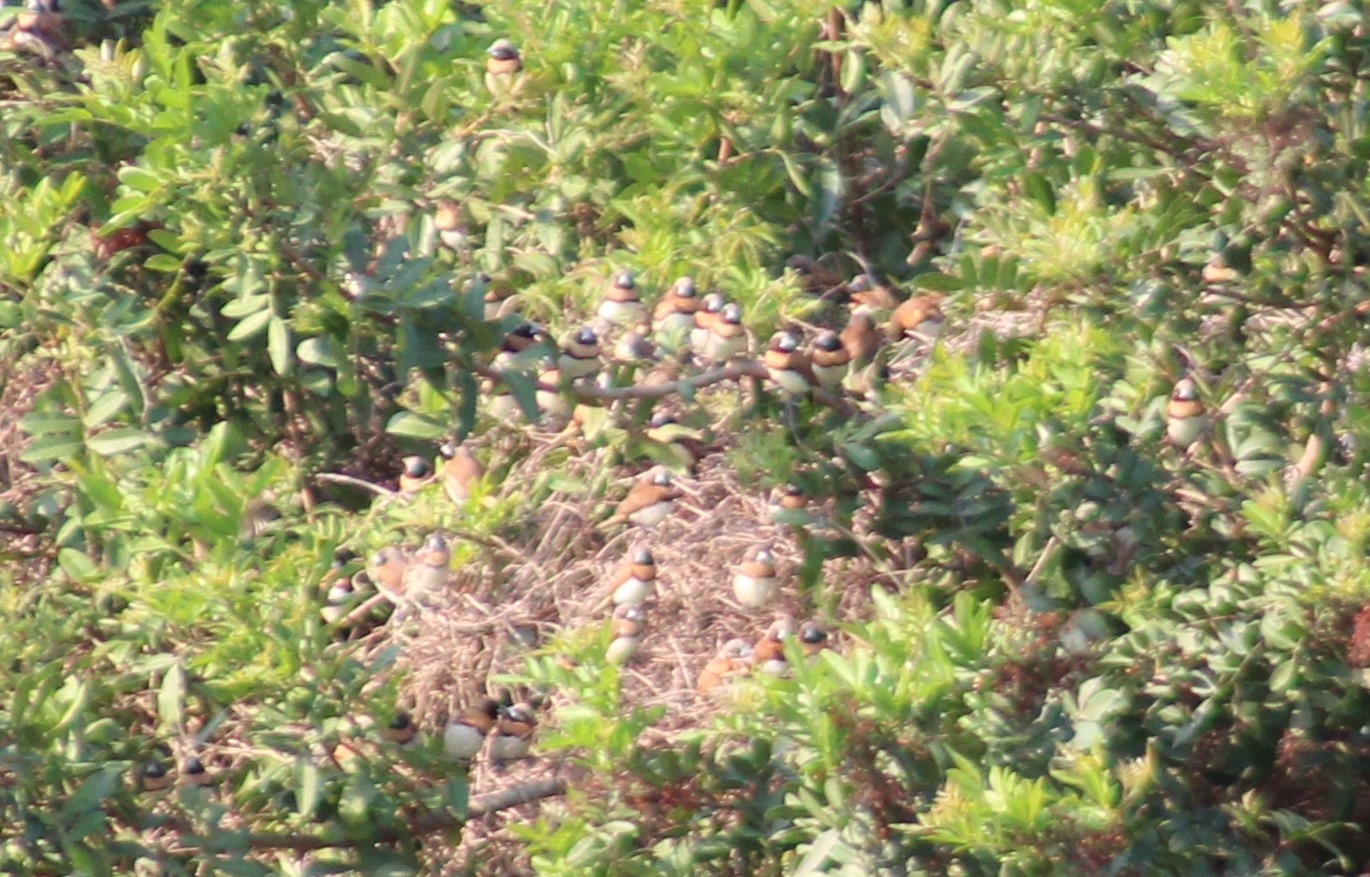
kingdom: Animalia
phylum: Chordata
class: Aves
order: Passeriformes
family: Estrildidae
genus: Lonchura
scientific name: Lonchura castaneothorax
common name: Chestnut-breasted mannikin
